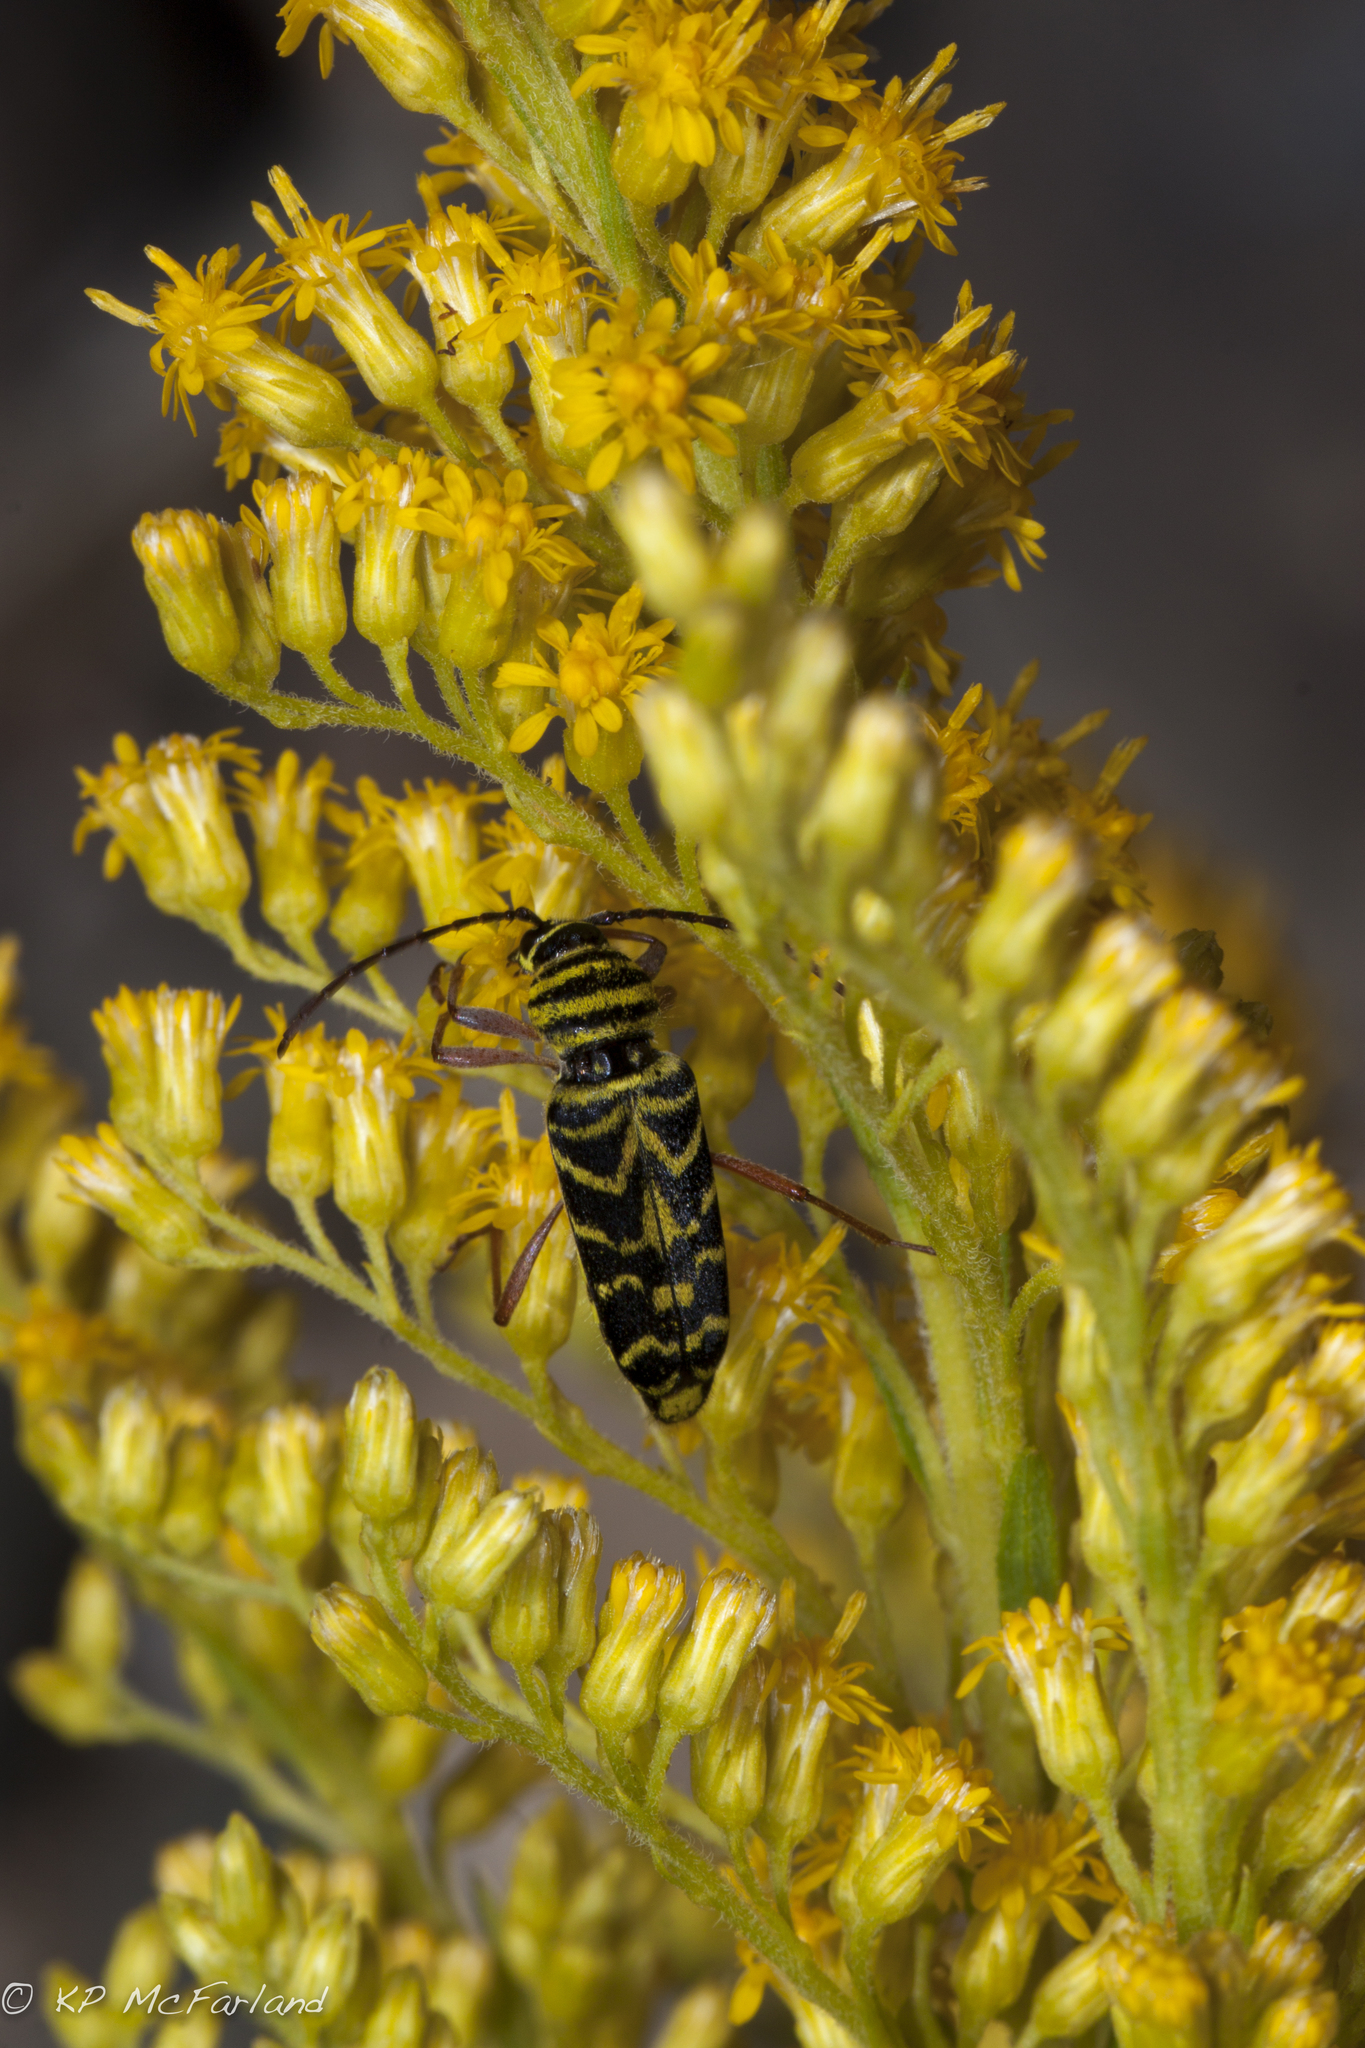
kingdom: Animalia
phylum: Arthropoda
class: Insecta
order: Coleoptera
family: Cerambycidae
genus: Megacyllene
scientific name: Megacyllene robiniae
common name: Locust borer
